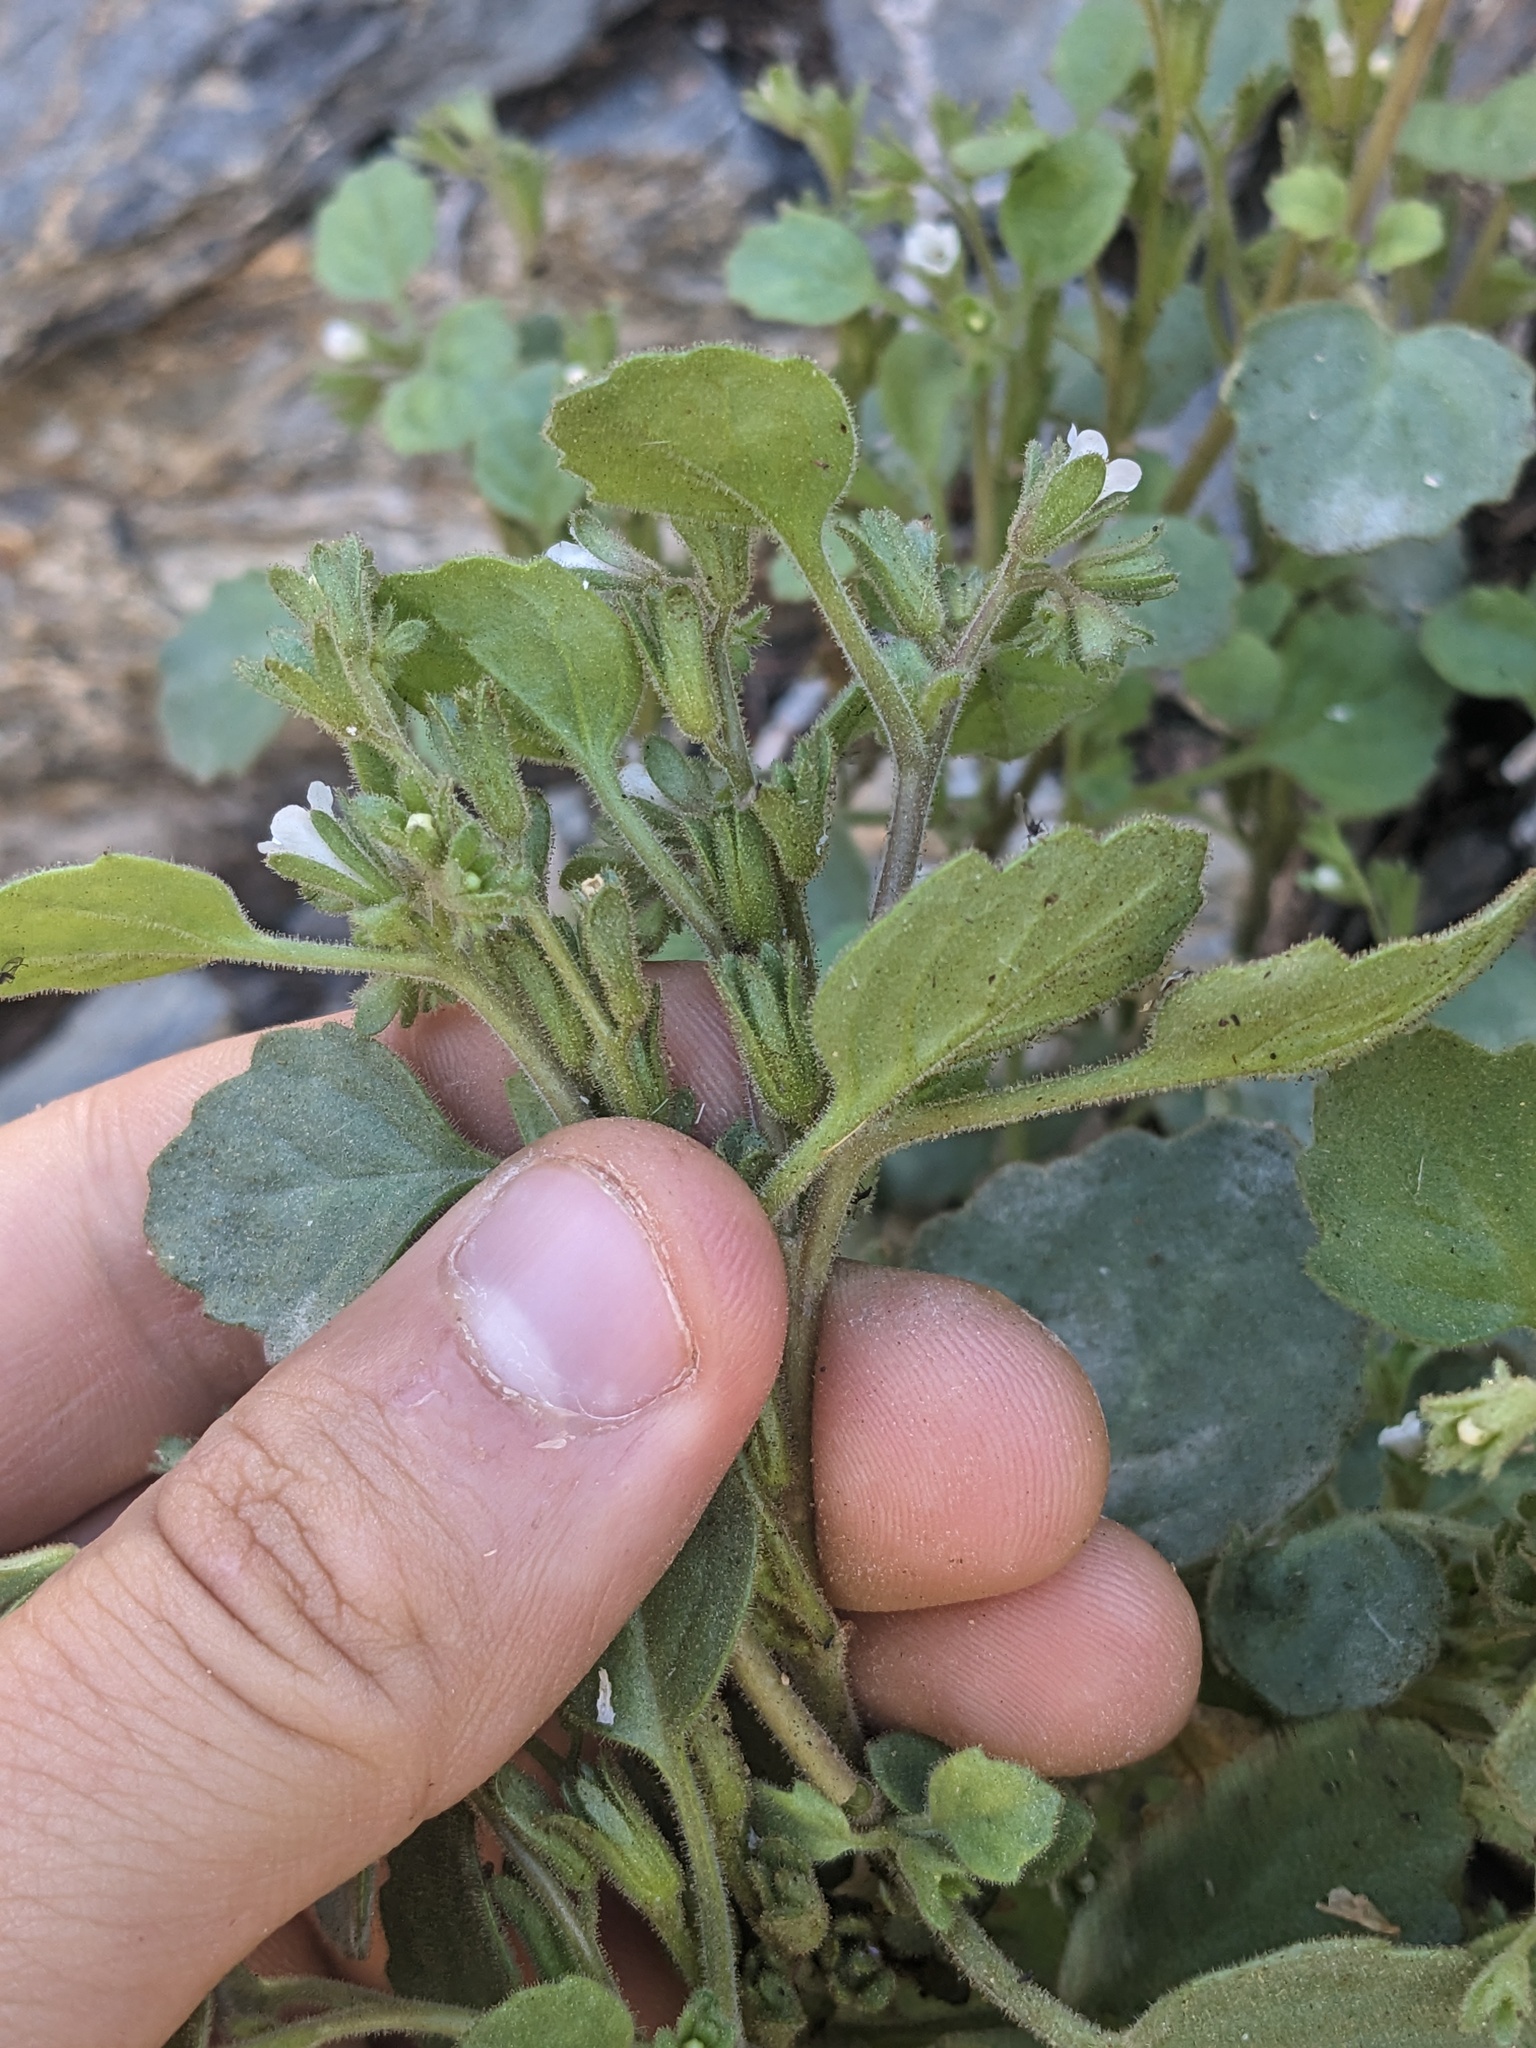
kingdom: Plantae
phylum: Tracheophyta
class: Magnoliopsida
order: Boraginales
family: Hydrophyllaceae
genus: Phacelia
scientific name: Phacelia peirsoniana
